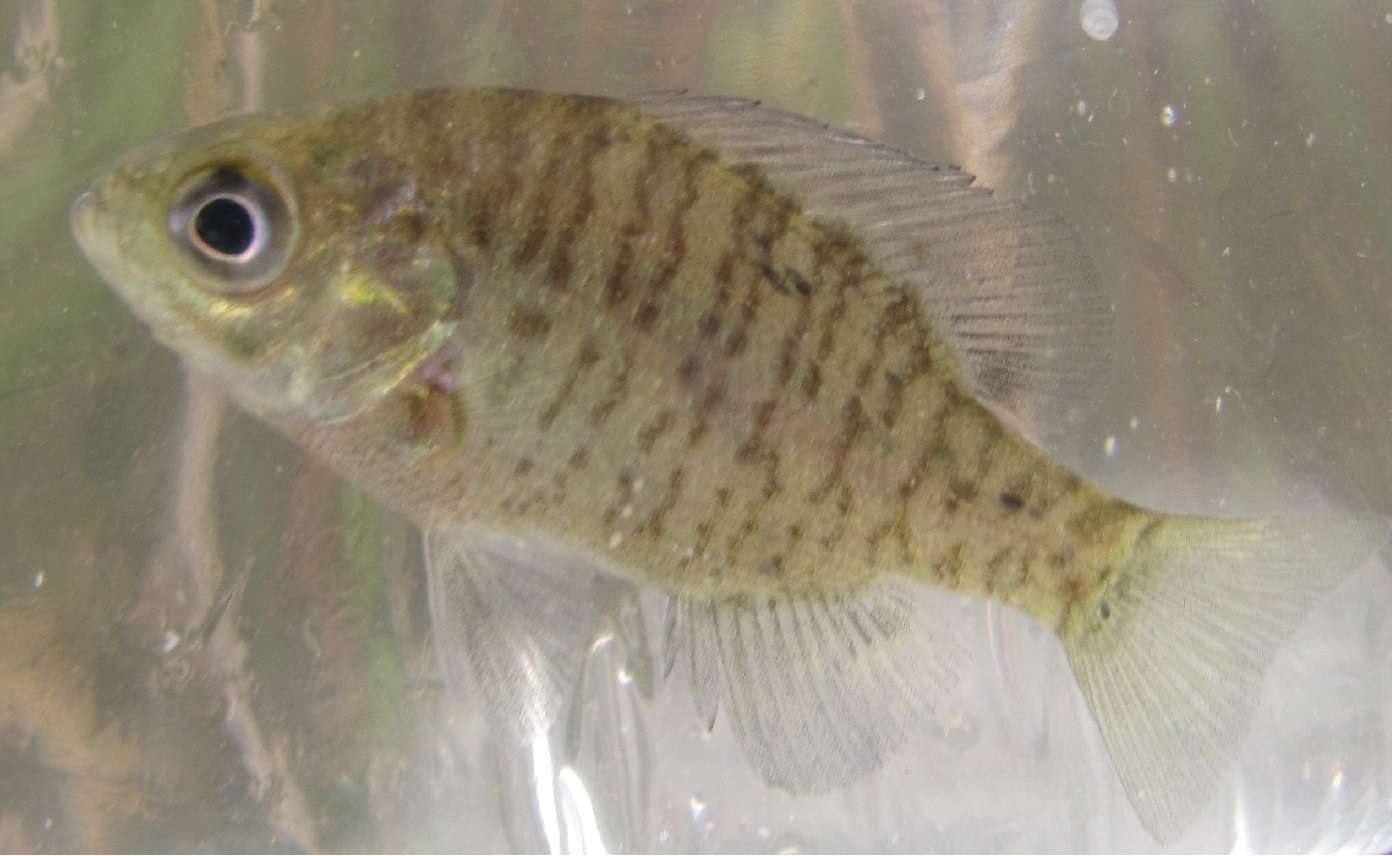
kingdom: Animalia
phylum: Chordata
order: Perciformes
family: Centrarchidae
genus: Lepomis
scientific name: Lepomis macrochirus
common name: Bluegill
